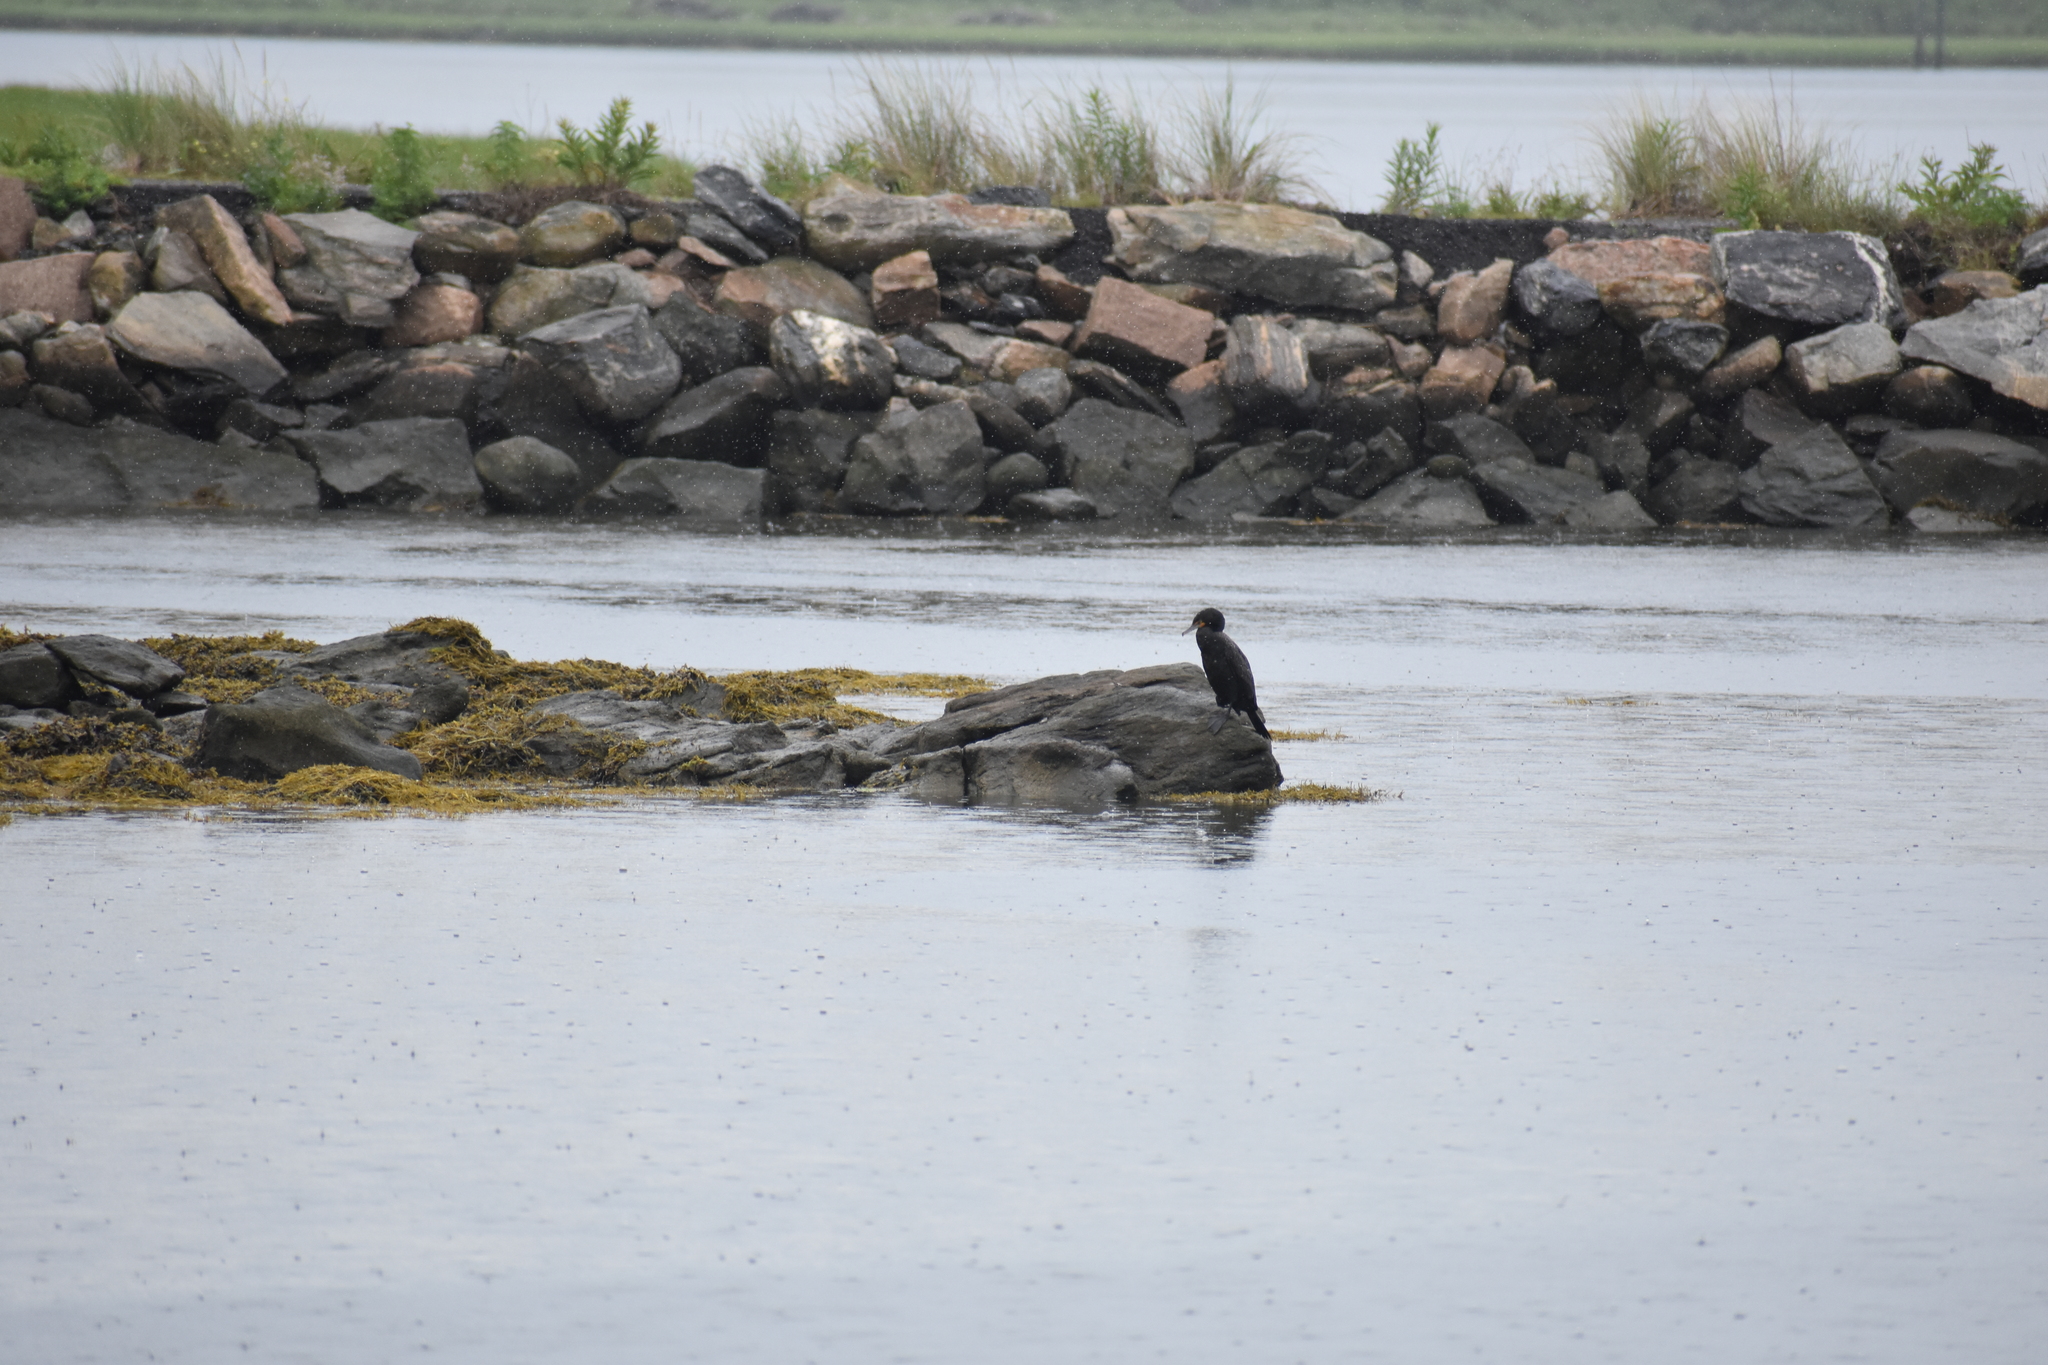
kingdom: Animalia
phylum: Chordata
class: Aves
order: Suliformes
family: Phalacrocoracidae
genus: Phalacrocorax
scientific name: Phalacrocorax auritus
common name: Double-crested cormorant
